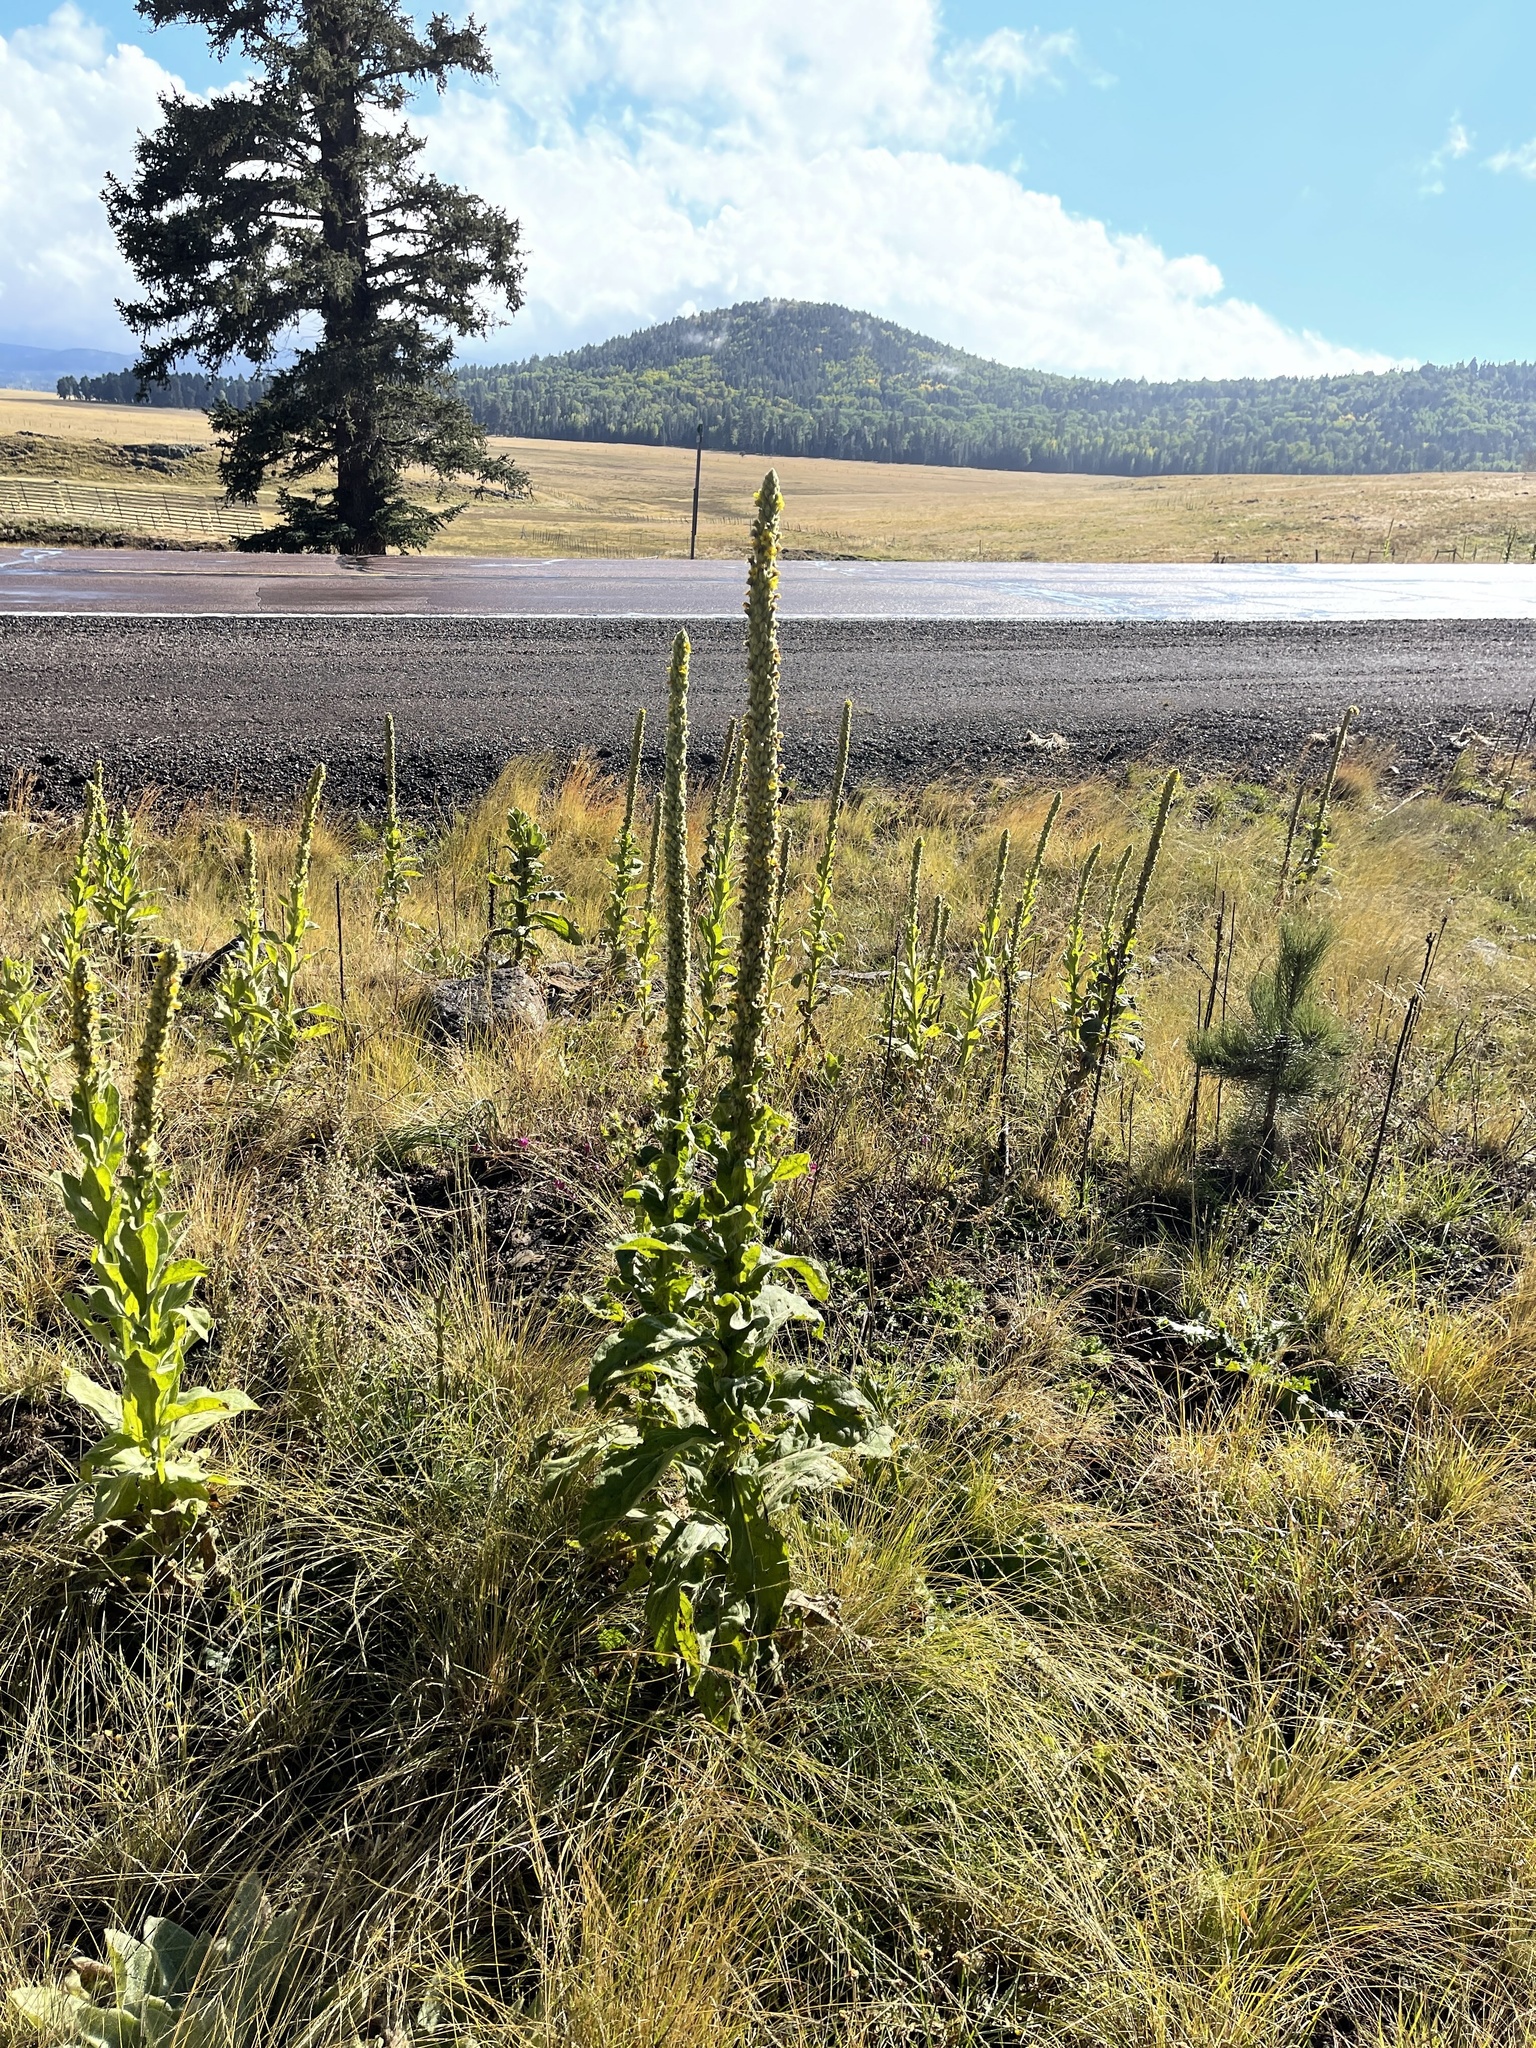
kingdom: Plantae
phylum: Tracheophyta
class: Magnoliopsida
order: Lamiales
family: Scrophulariaceae
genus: Verbascum
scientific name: Verbascum thapsus
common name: Common mullein
